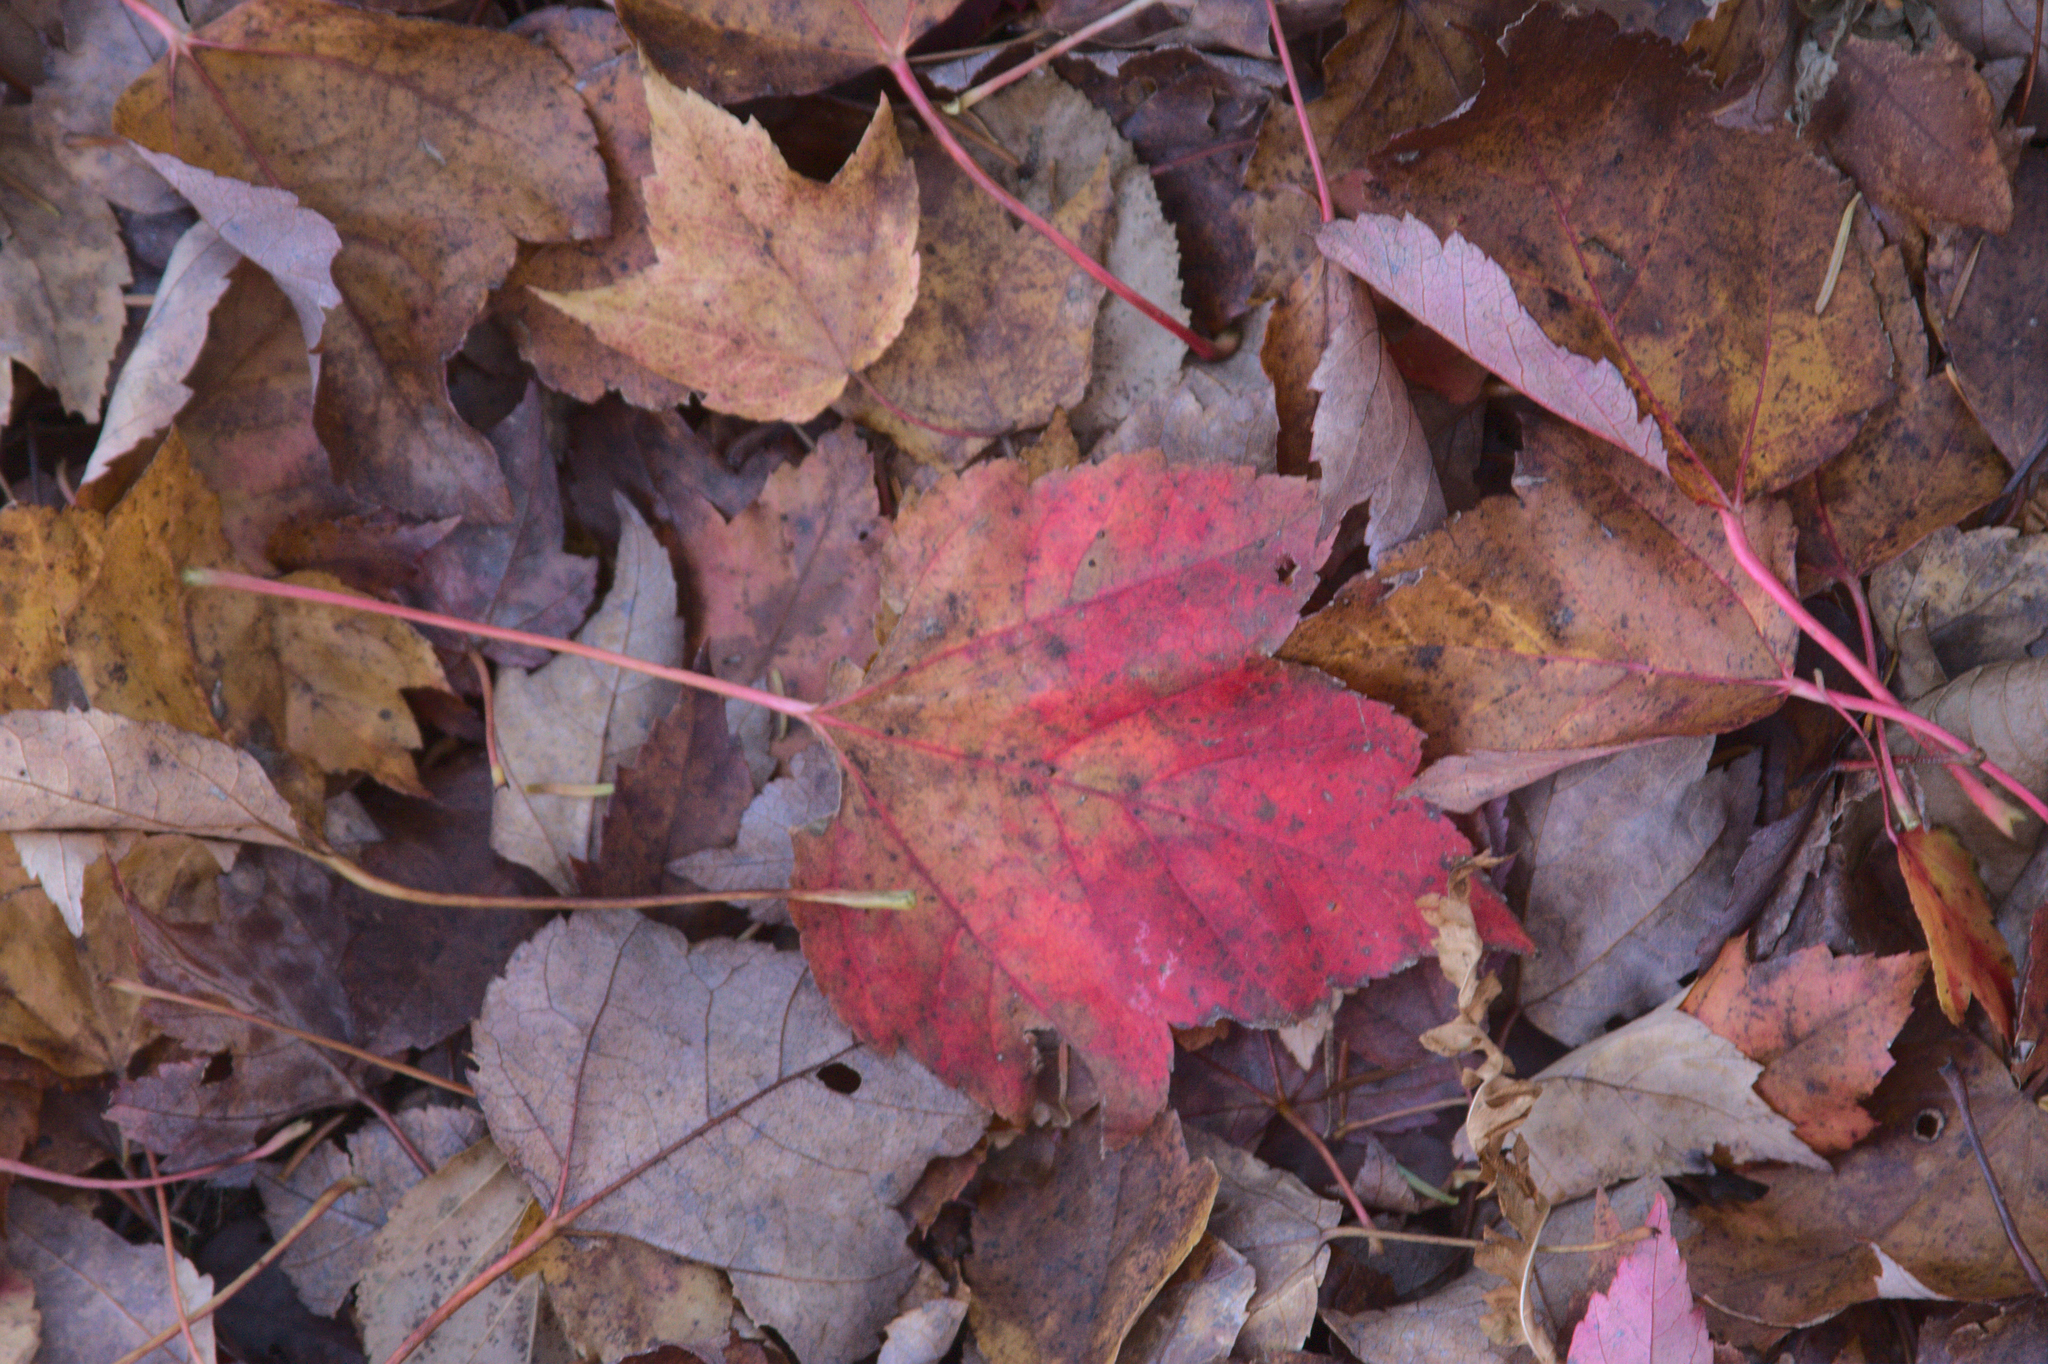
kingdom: Plantae
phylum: Tracheophyta
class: Magnoliopsida
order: Sapindales
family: Sapindaceae
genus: Acer
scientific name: Acer rubrum
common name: Red maple
